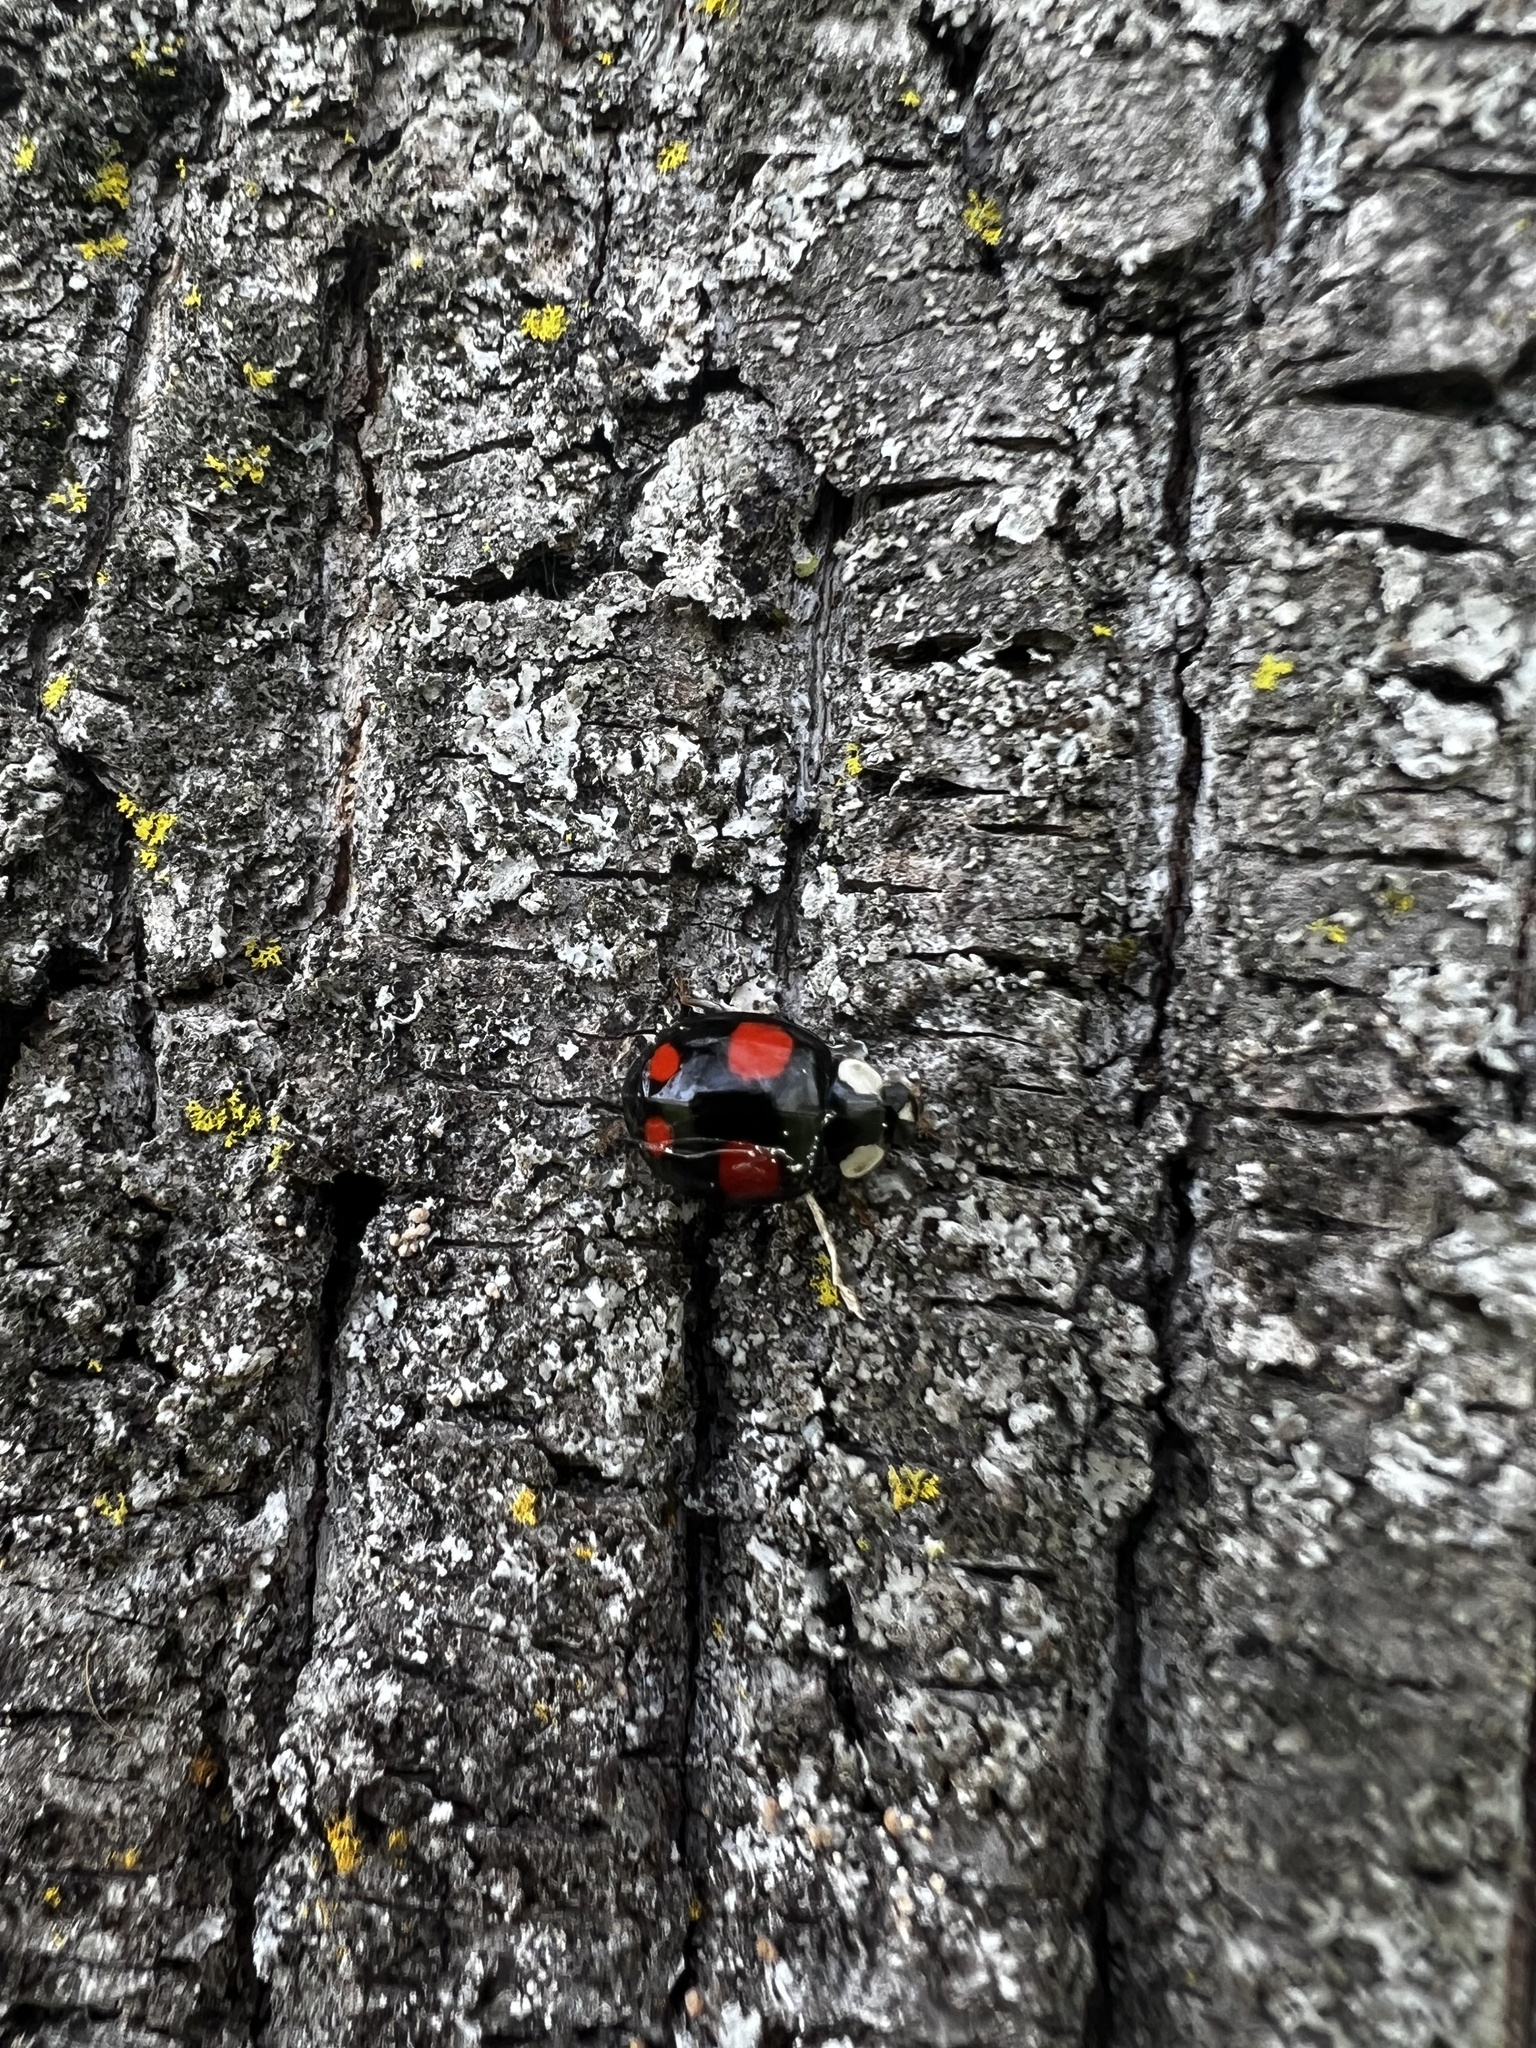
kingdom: Animalia
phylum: Arthropoda
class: Insecta
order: Coleoptera
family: Coccinellidae
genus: Harmonia
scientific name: Harmonia axyridis
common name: Harlequin ladybird
